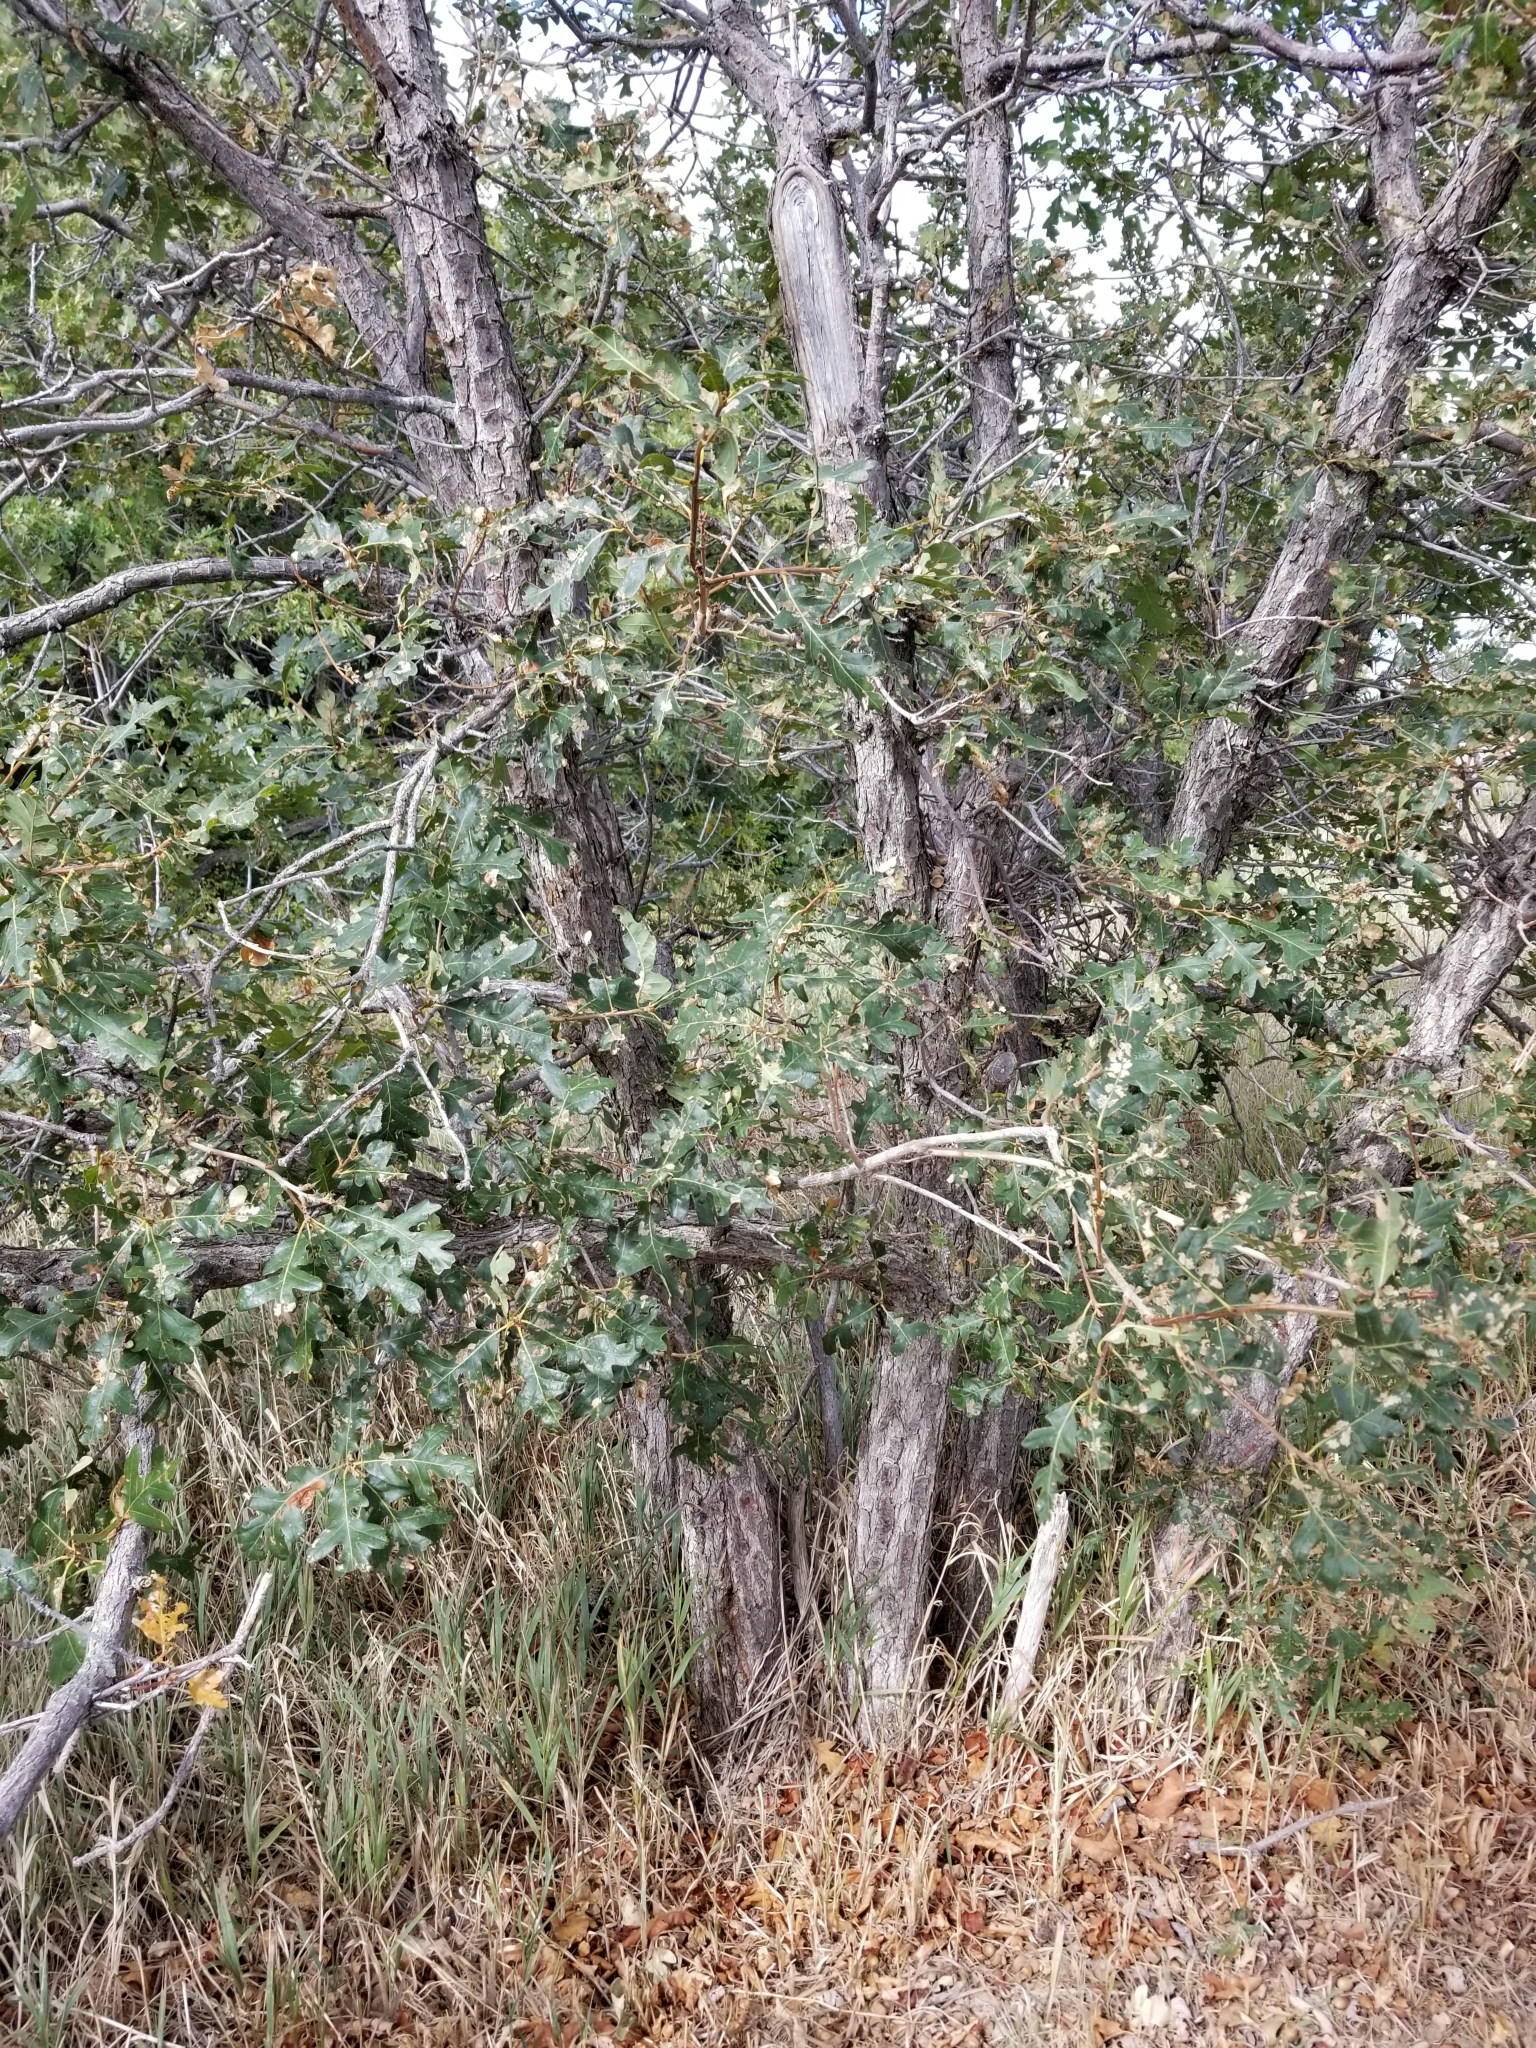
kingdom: Plantae
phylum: Tracheophyta
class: Magnoliopsida
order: Fagales
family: Fagaceae
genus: Quercus
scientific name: Quercus gambelii
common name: Gambel oak
